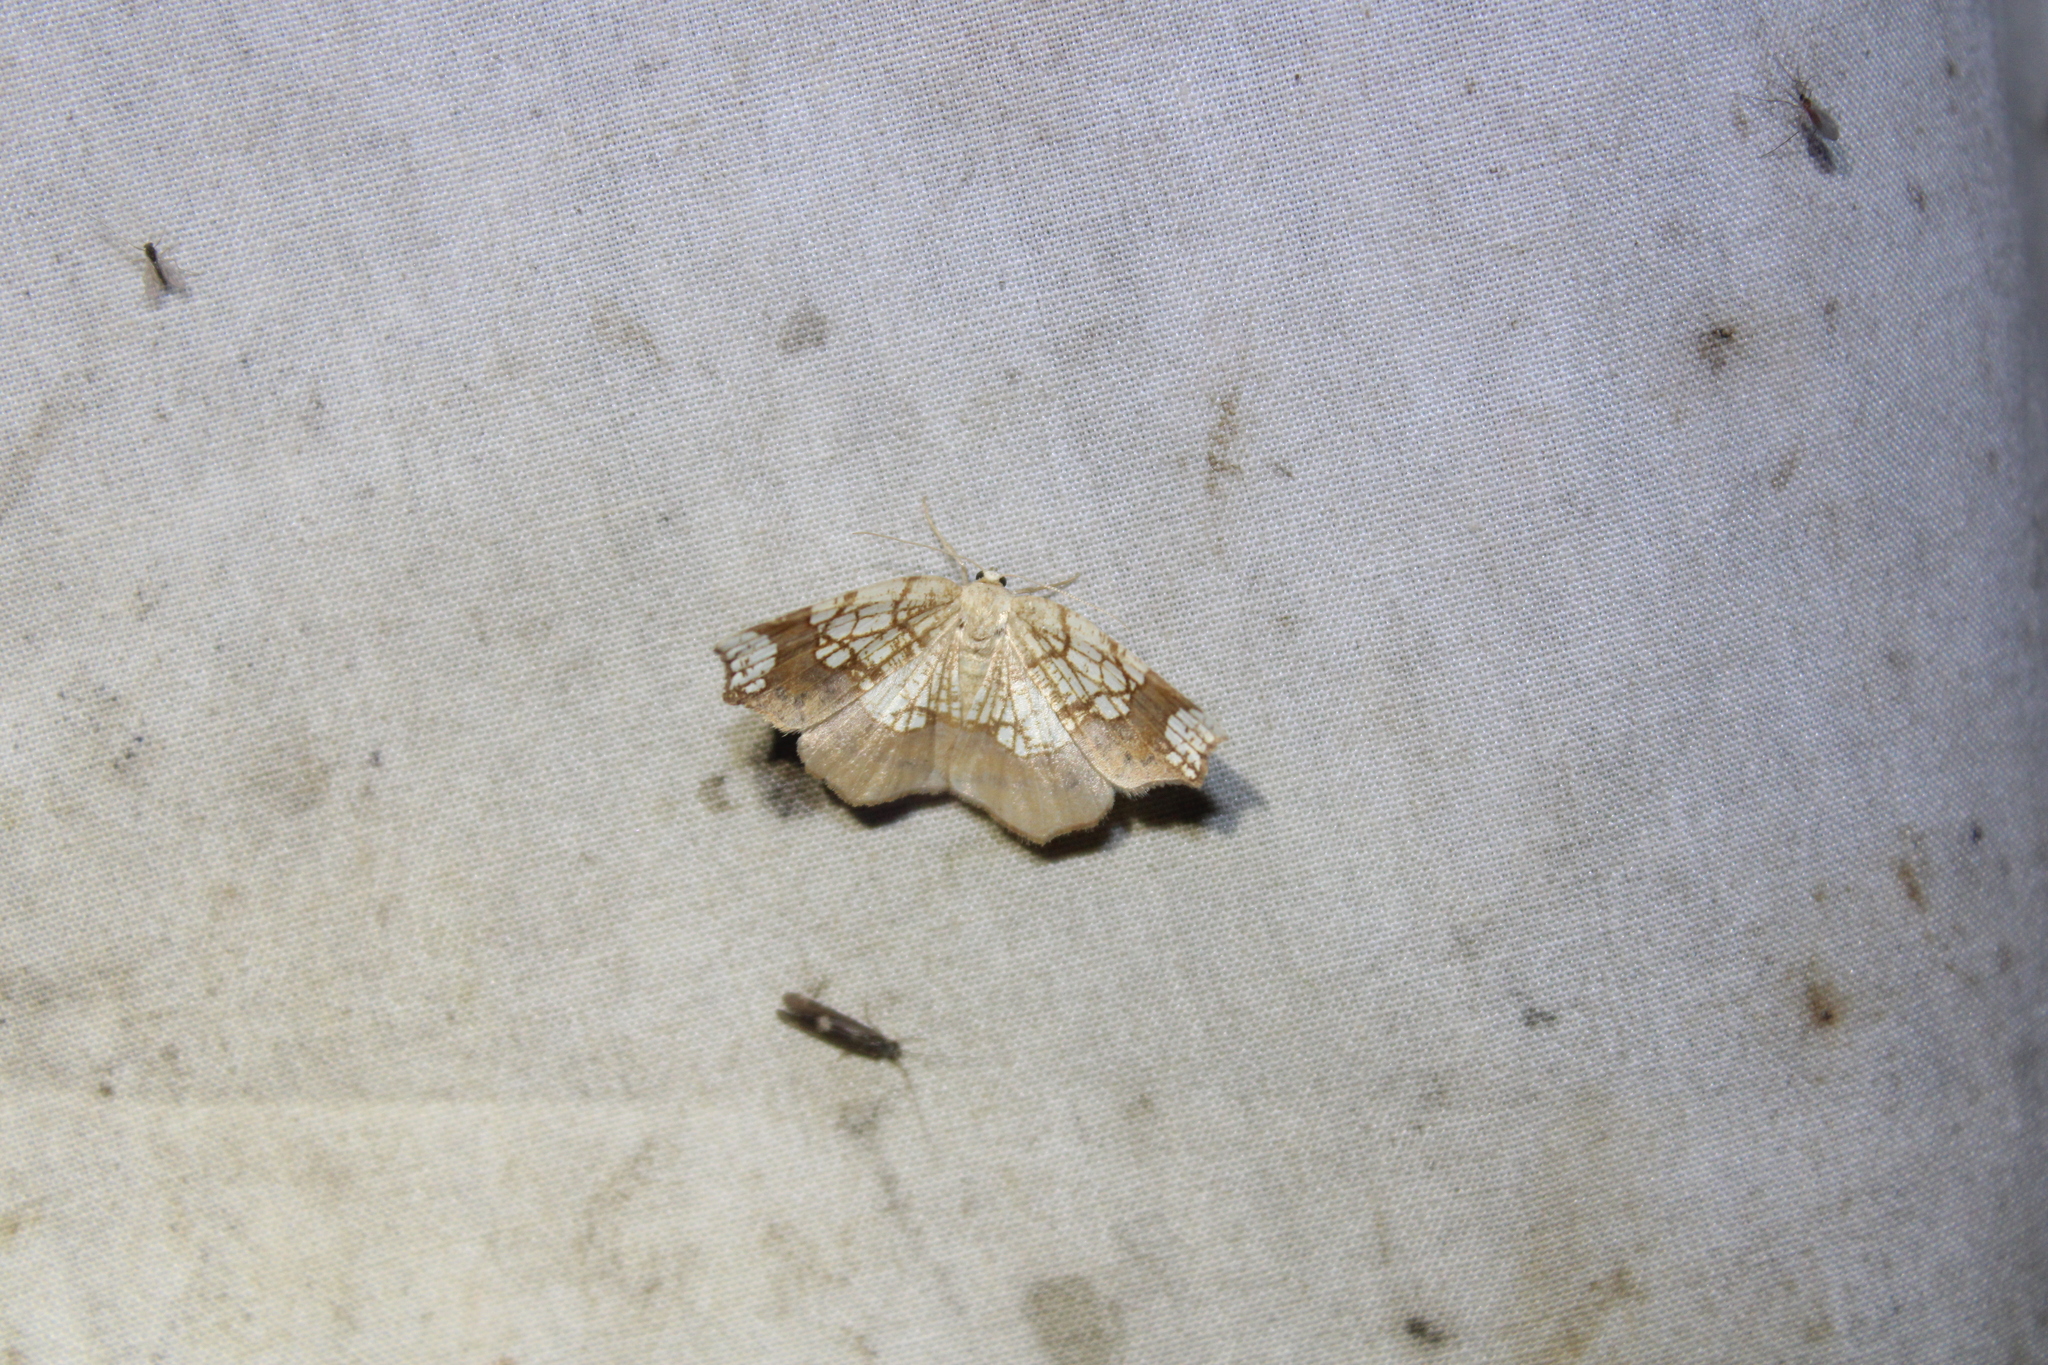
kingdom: Animalia
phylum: Arthropoda
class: Insecta
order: Lepidoptera
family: Geometridae
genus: Nematocampa
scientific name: Nematocampa resistaria
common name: Horned spanworm moth
